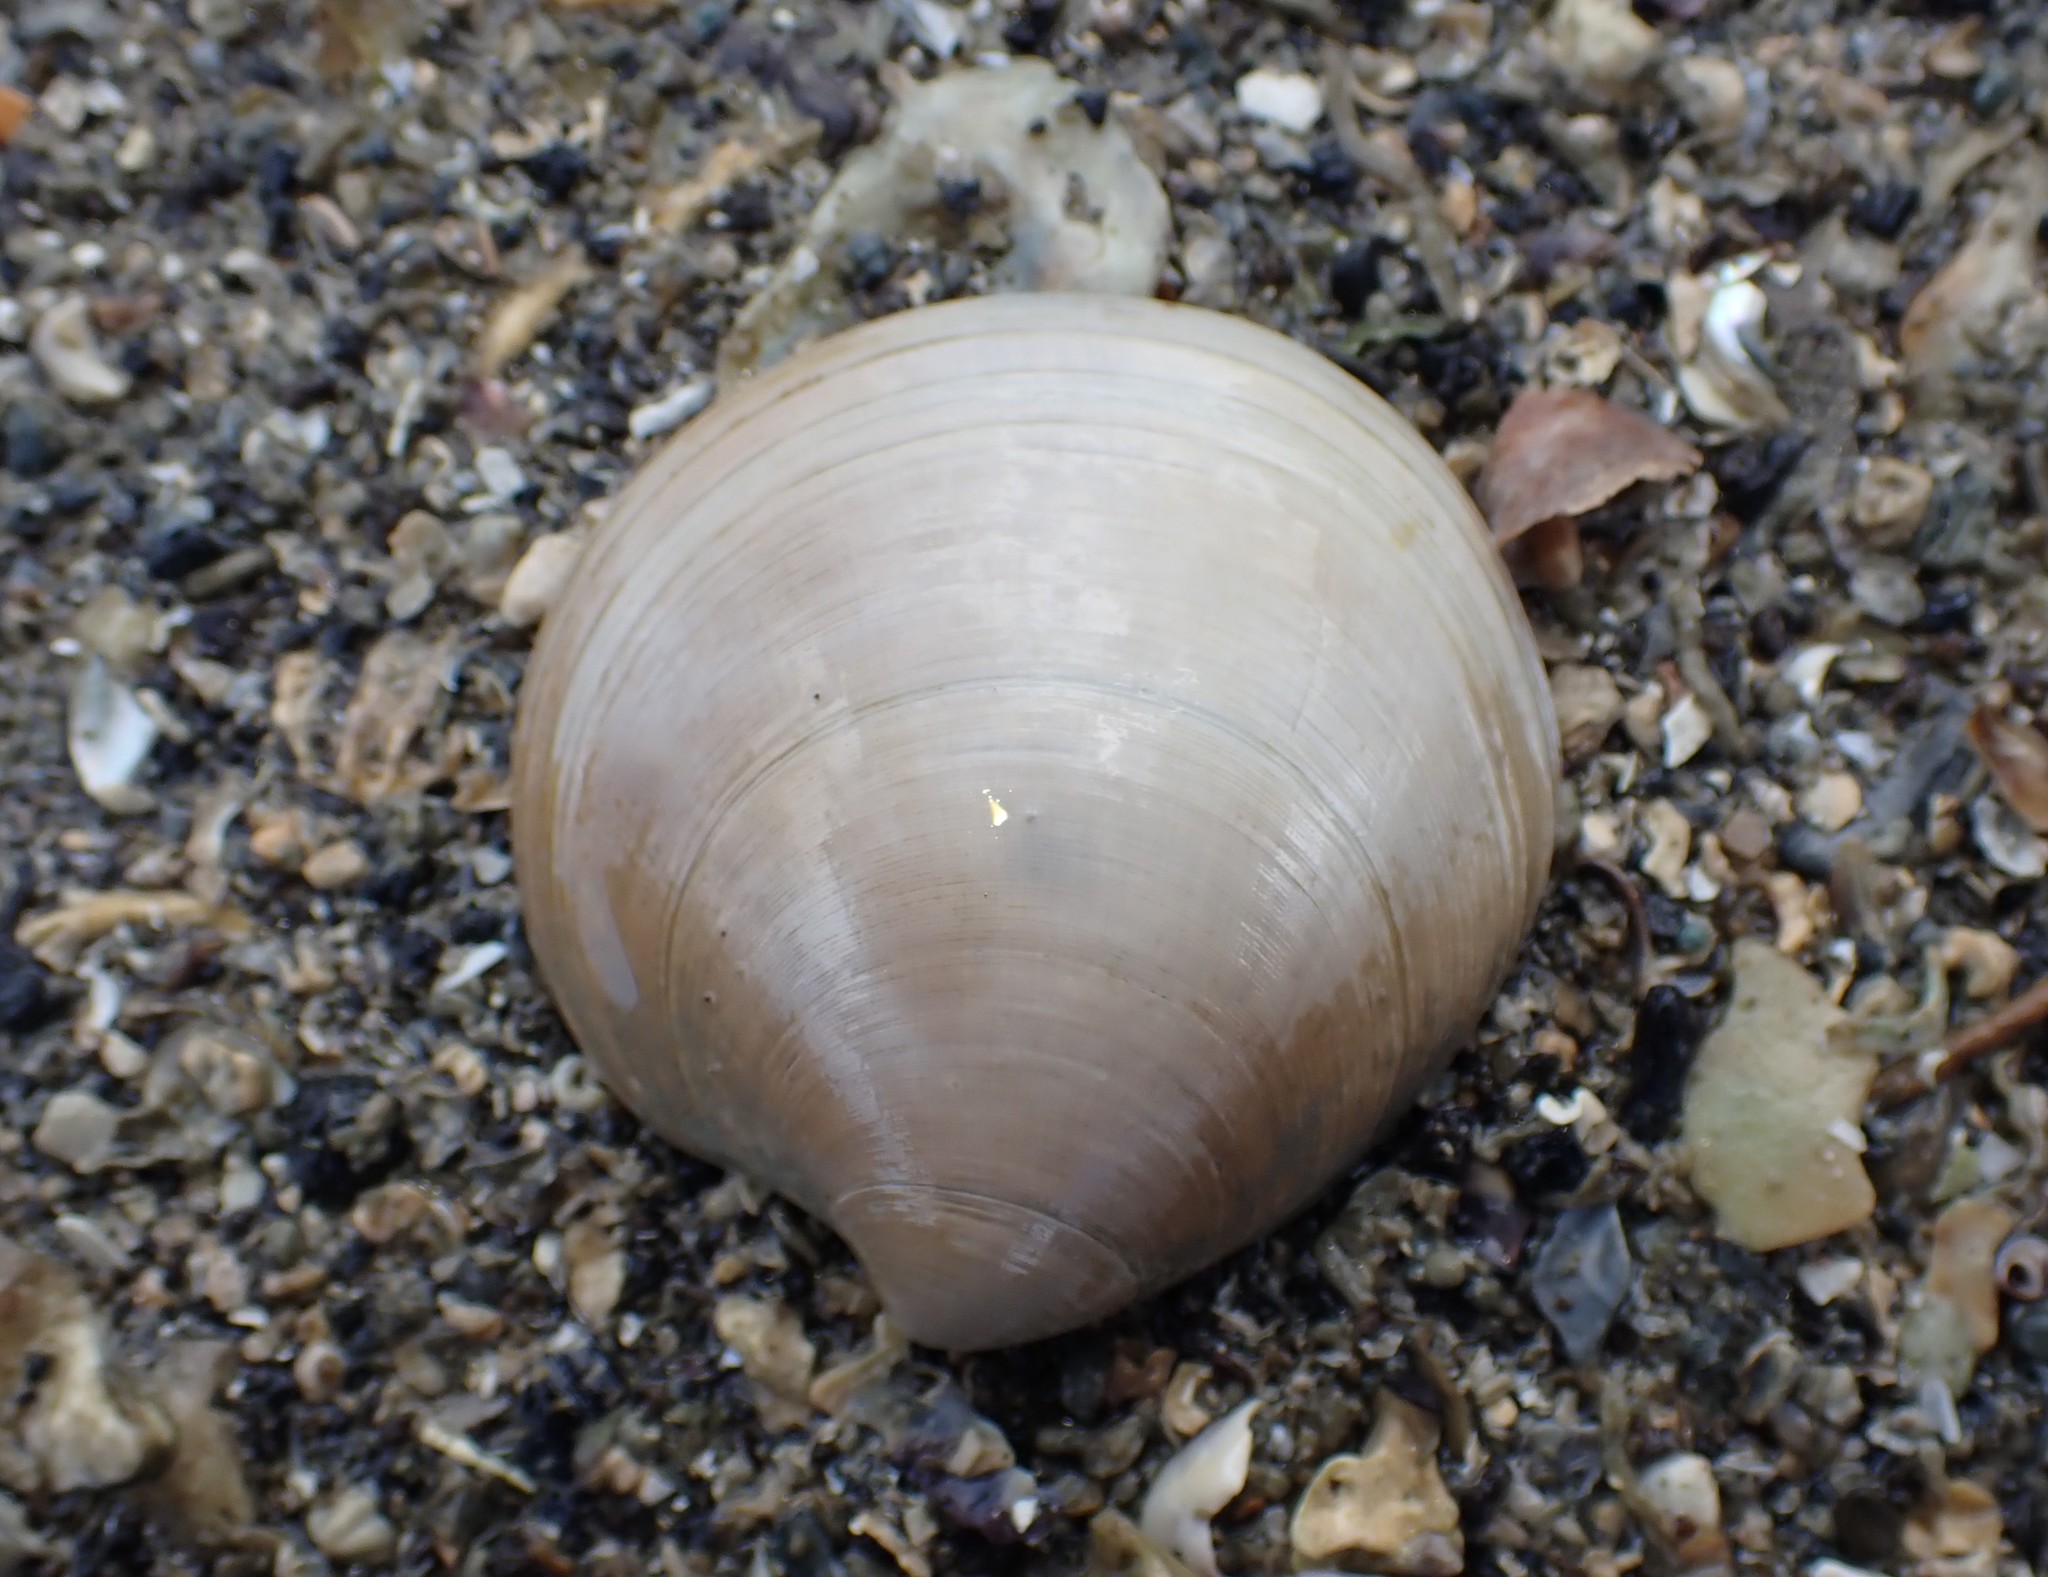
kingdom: Animalia
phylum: Mollusca
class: Bivalvia
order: Venerida
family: Veneridae
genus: Dosinia
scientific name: Dosinia lambata
